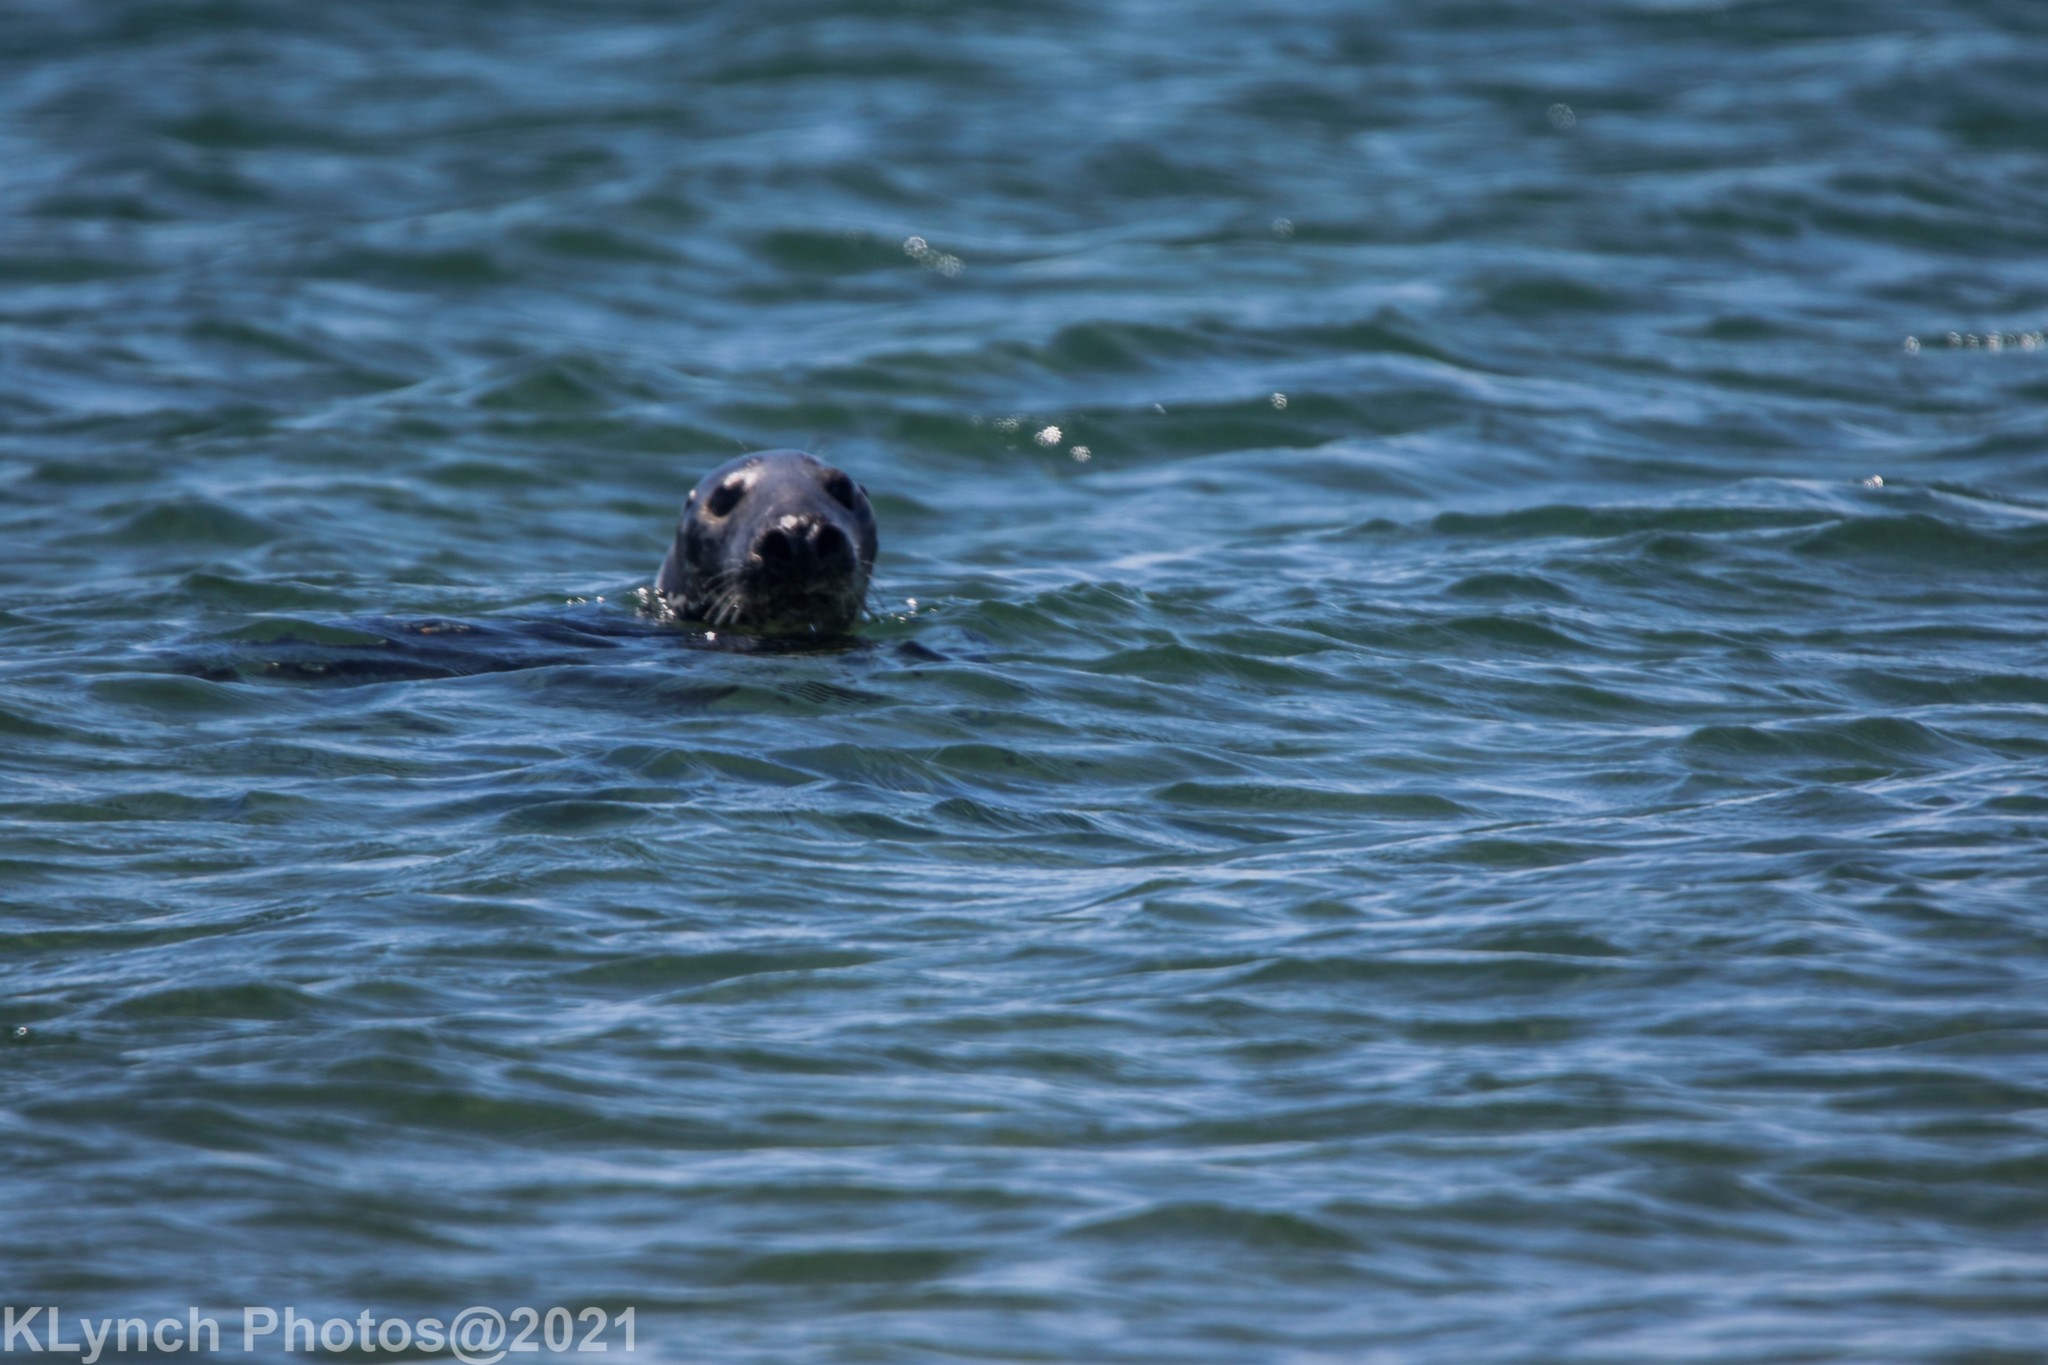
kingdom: Animalia
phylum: Chordata
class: Mammalia
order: Carnivora
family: Phocidae
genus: Halichoerus
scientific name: Halichoerus grypus
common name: Grey seal
